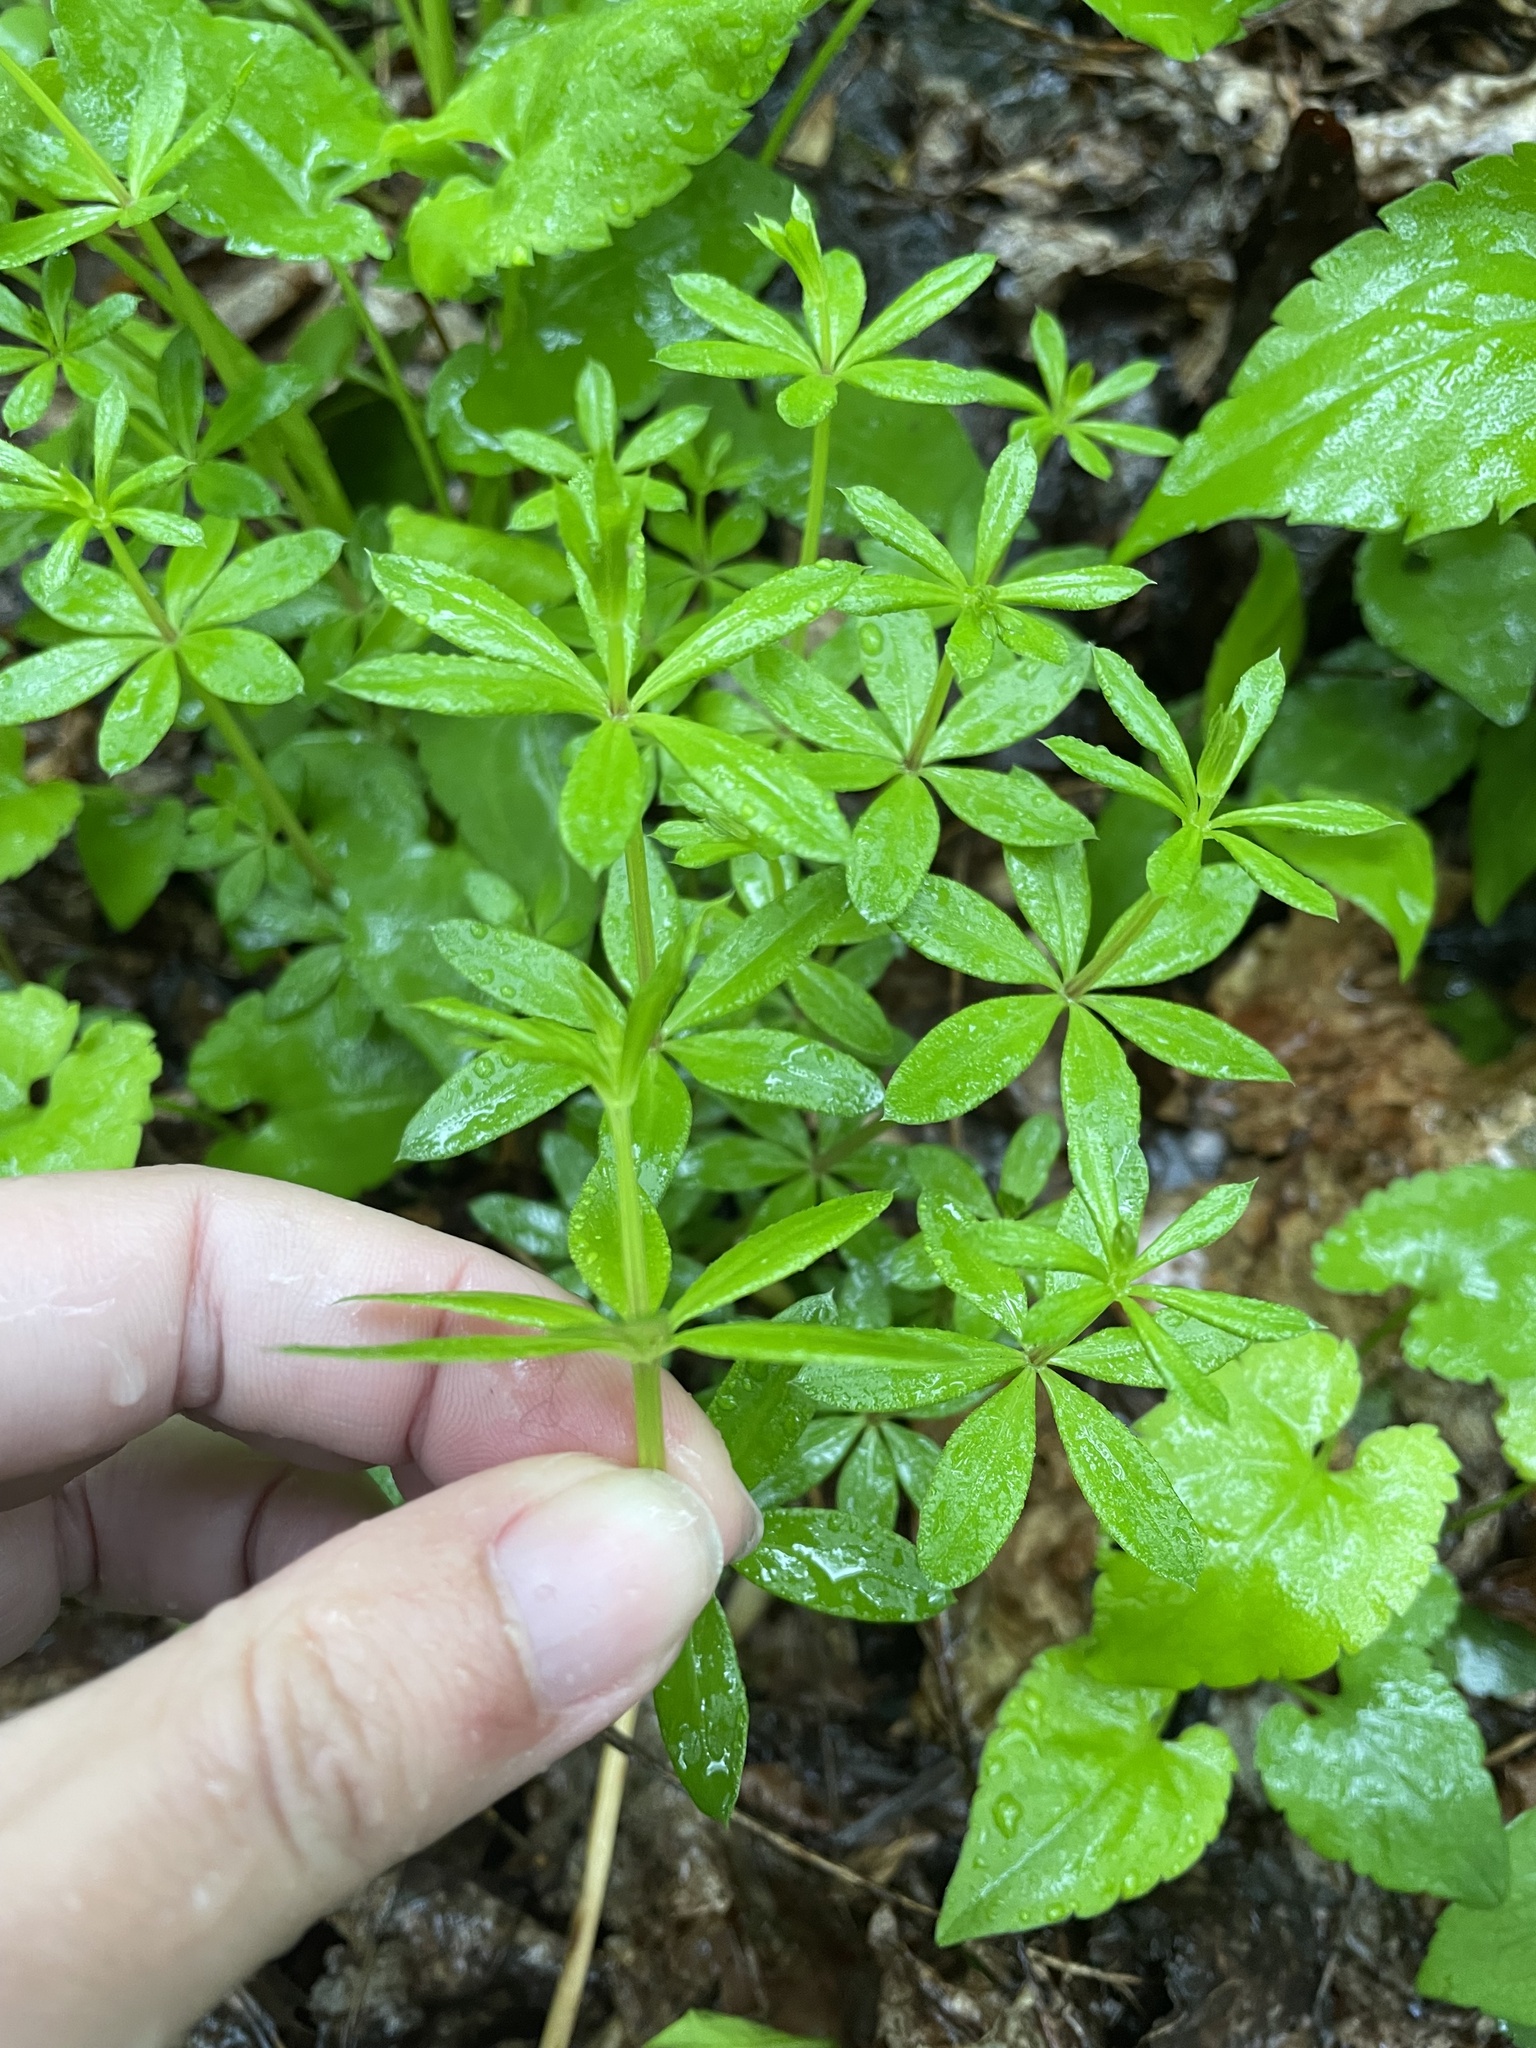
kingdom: Plantae
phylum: Tracheophyta
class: Magnoliopsida
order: Gentianales
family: Rubiaceae
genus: Galium
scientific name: Galium triflorum
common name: Fragrant bedstraw
